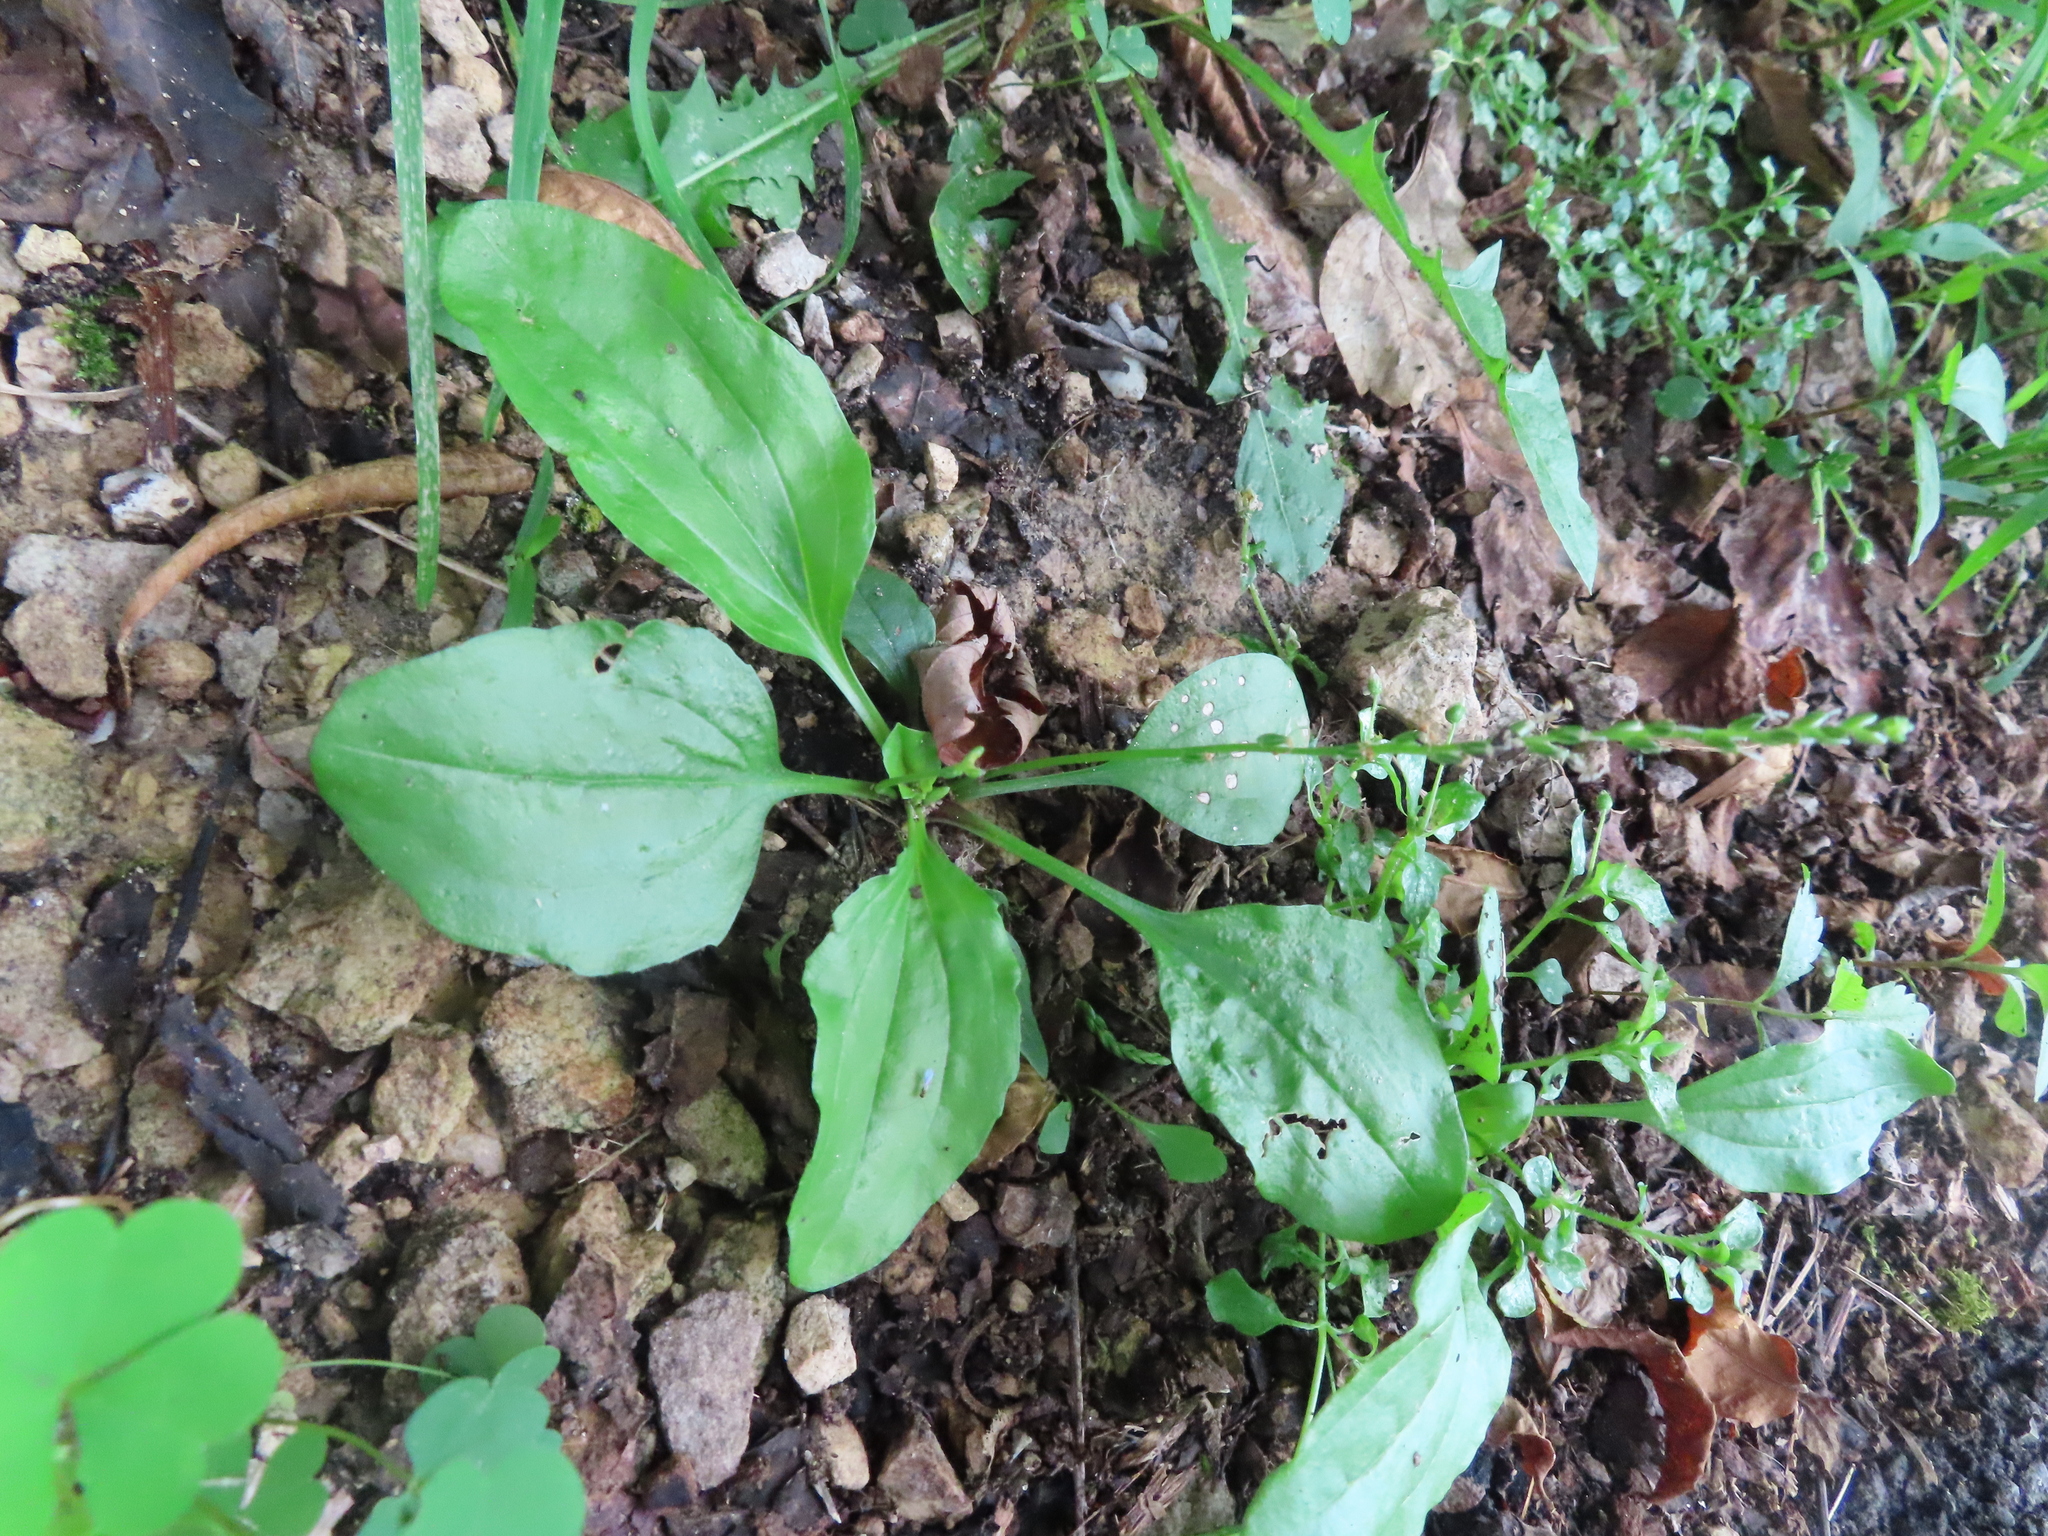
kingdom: Plantae
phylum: Tracheophyta
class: Magnoliopsida
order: Lamiales
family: Plantaginaceae
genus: Plantago
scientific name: Plantago rugelii
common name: American plantain
